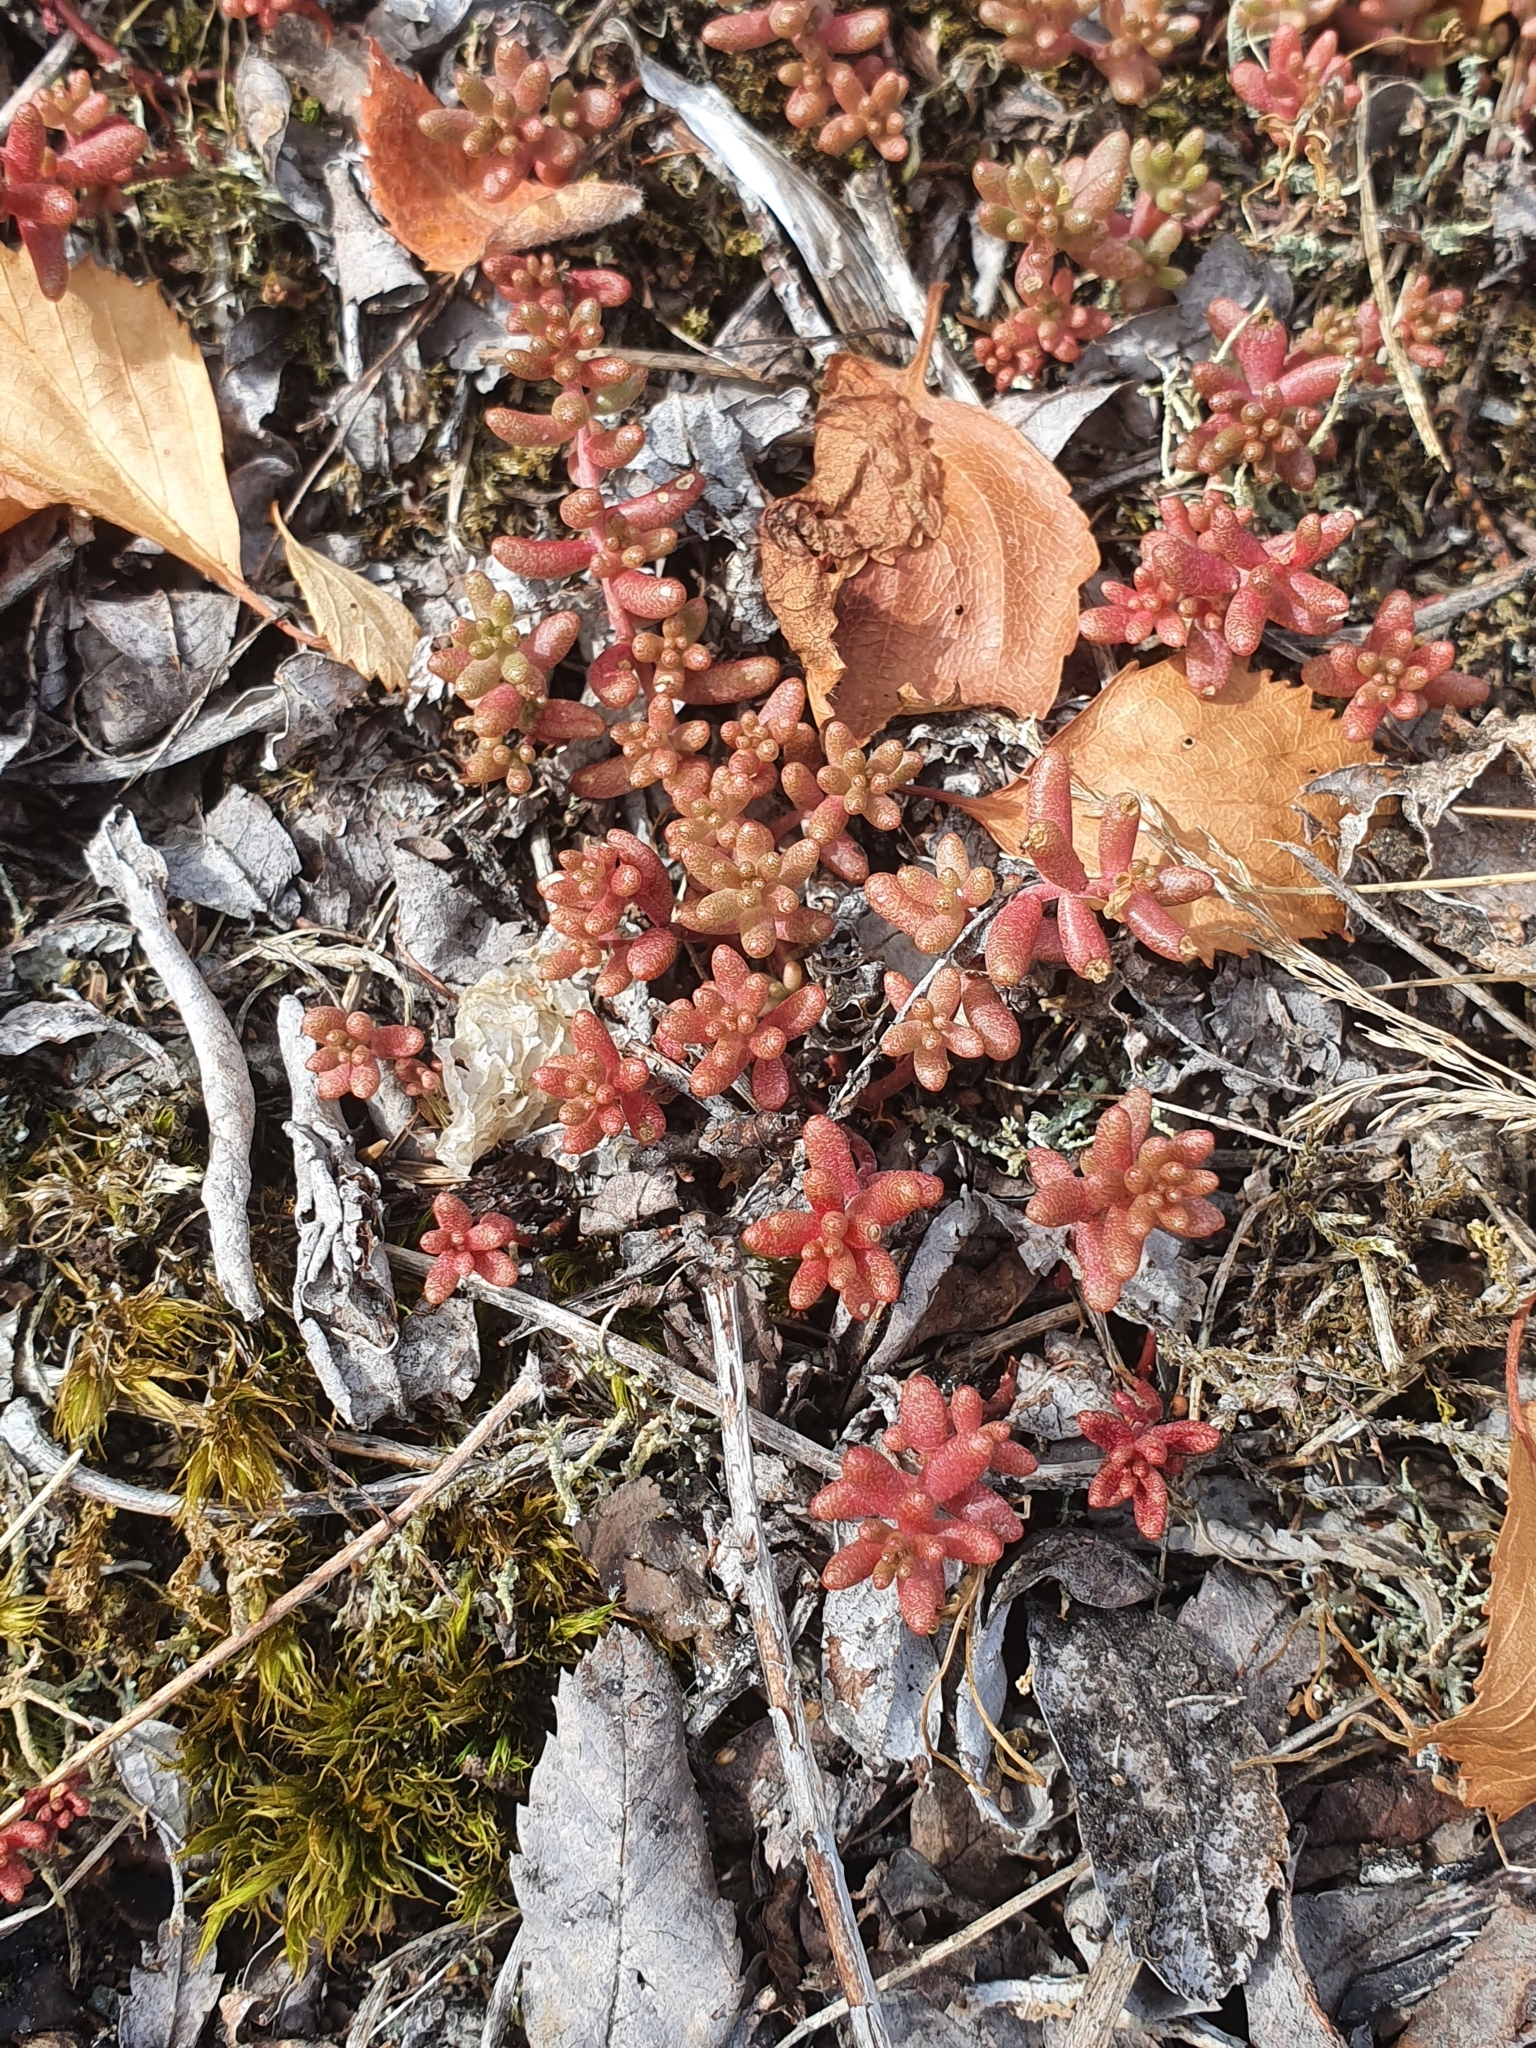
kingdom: Plantae
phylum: Tracheophyta
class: Magnoliopsida
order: Saxifragales
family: Crassulaceae
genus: Sedum
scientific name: Sedum album
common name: White stonecrop
